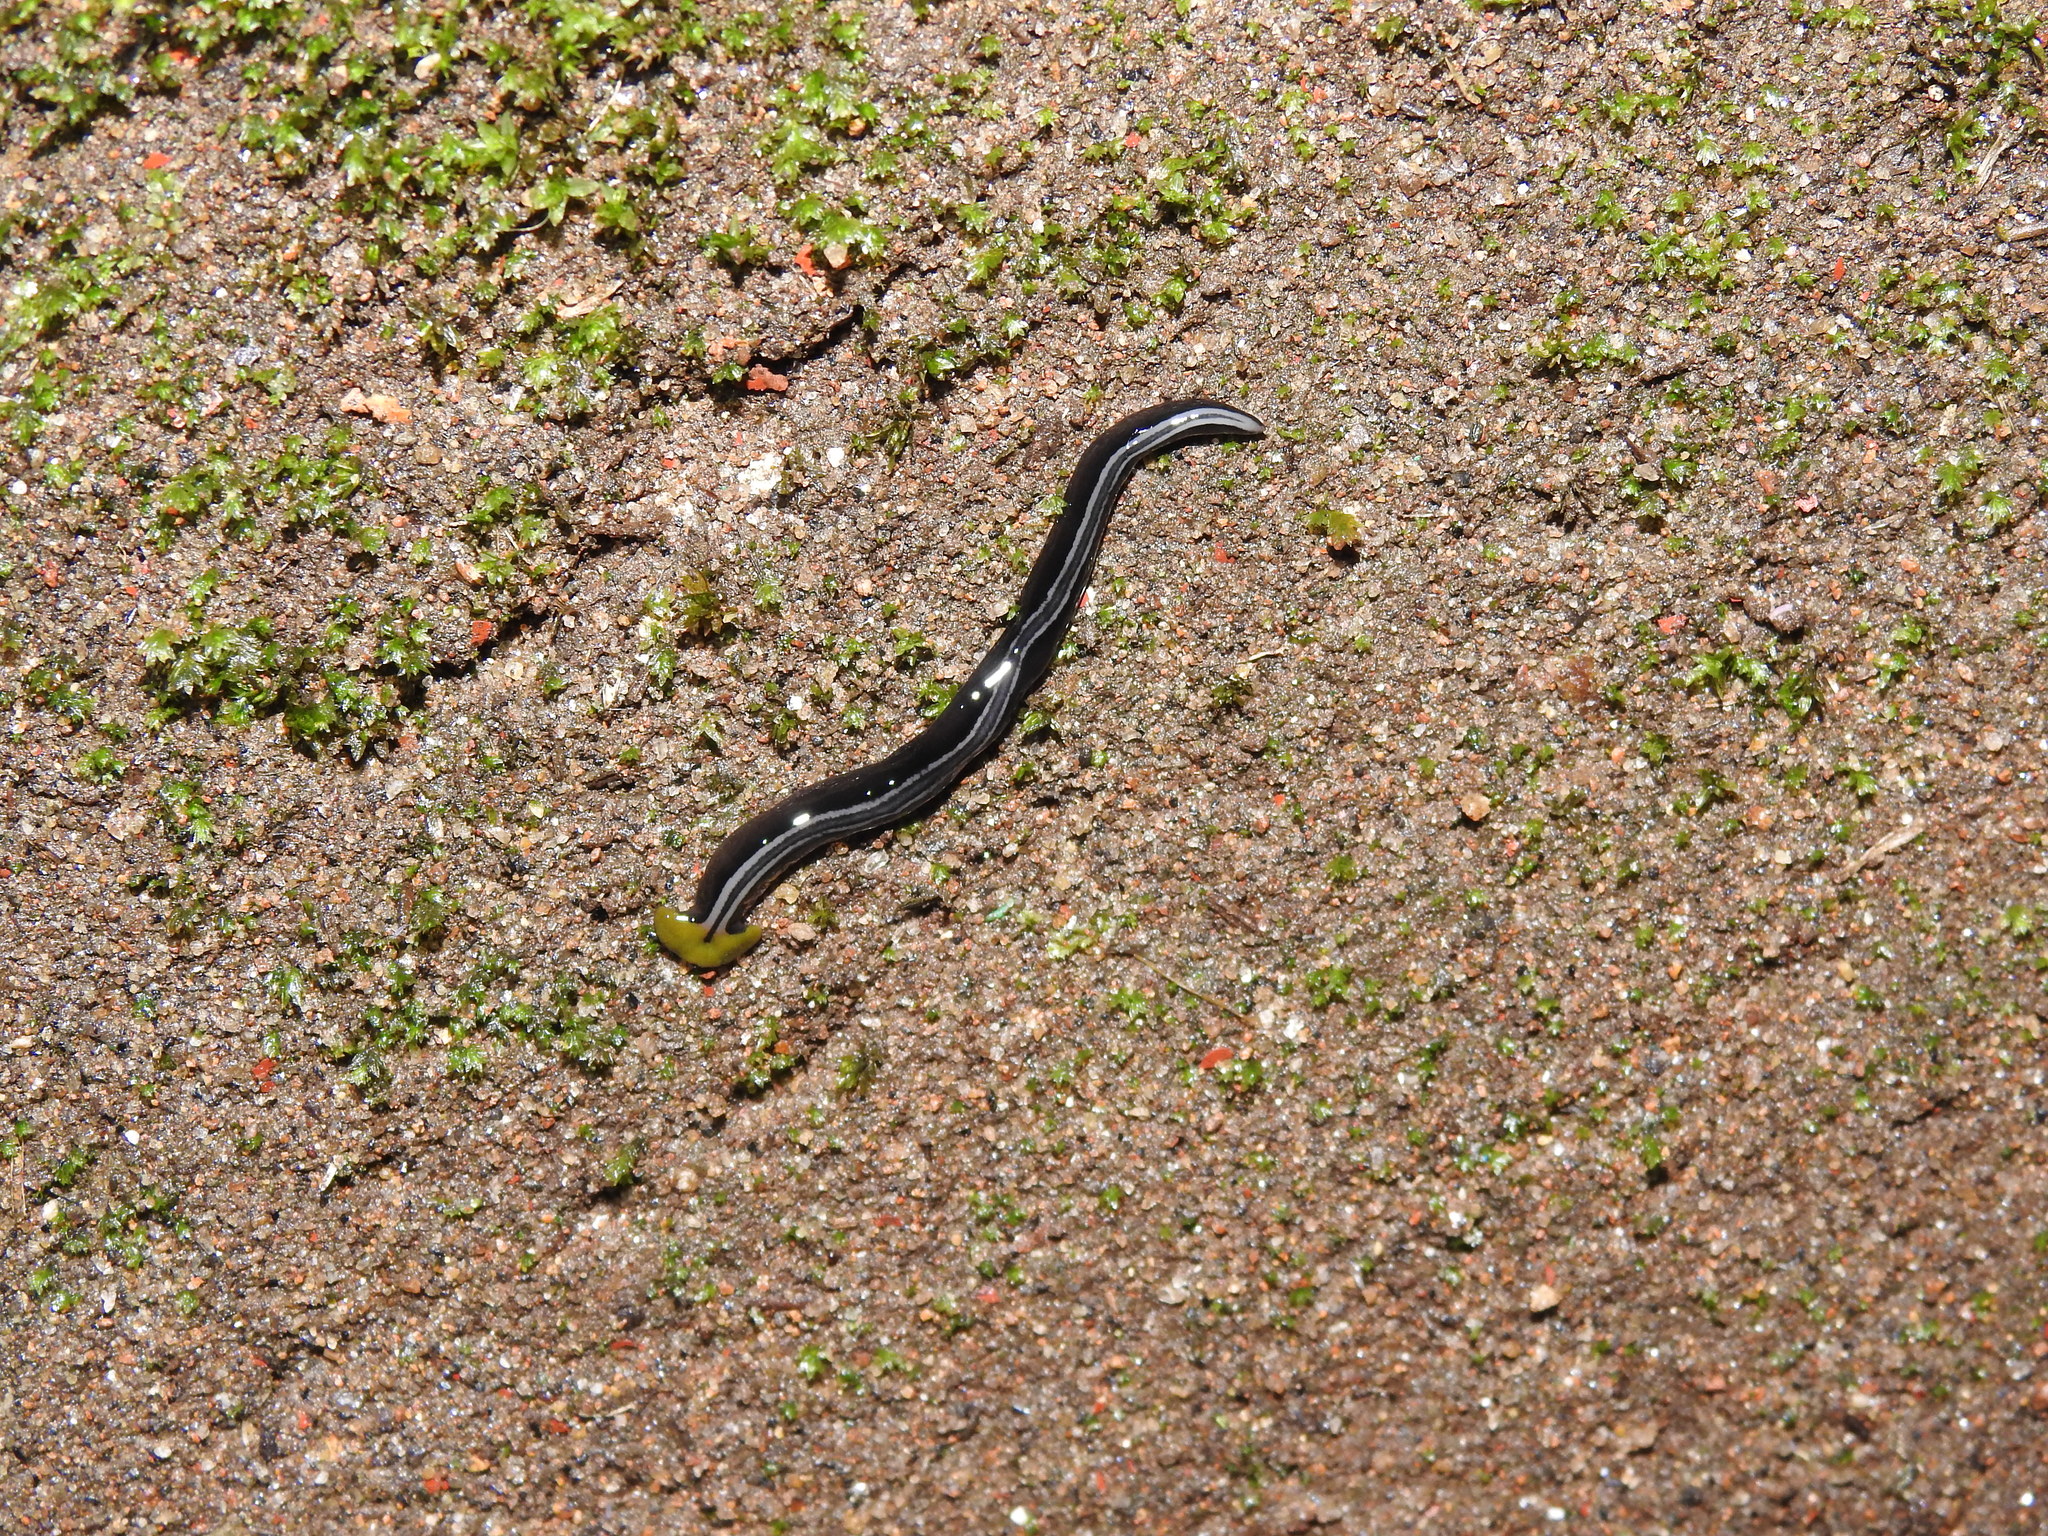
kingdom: Animalia
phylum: Platyhelminthes
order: Tricladida
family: Geoplanidae
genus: Humbertium
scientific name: Humbertium core
